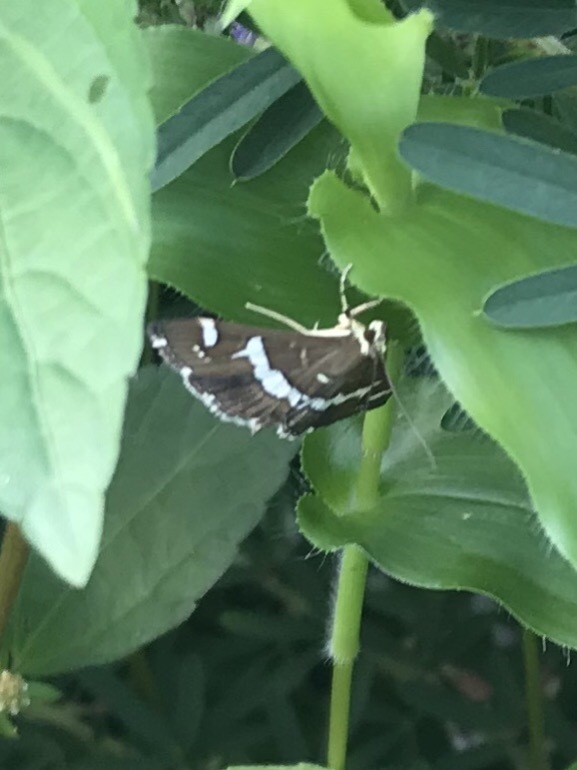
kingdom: Animalia
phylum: Arthropoda
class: Insecta
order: Lepidoptera
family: Crambidae
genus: Spoladea
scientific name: Spoladea recurvalis
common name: Beet webworm moth
